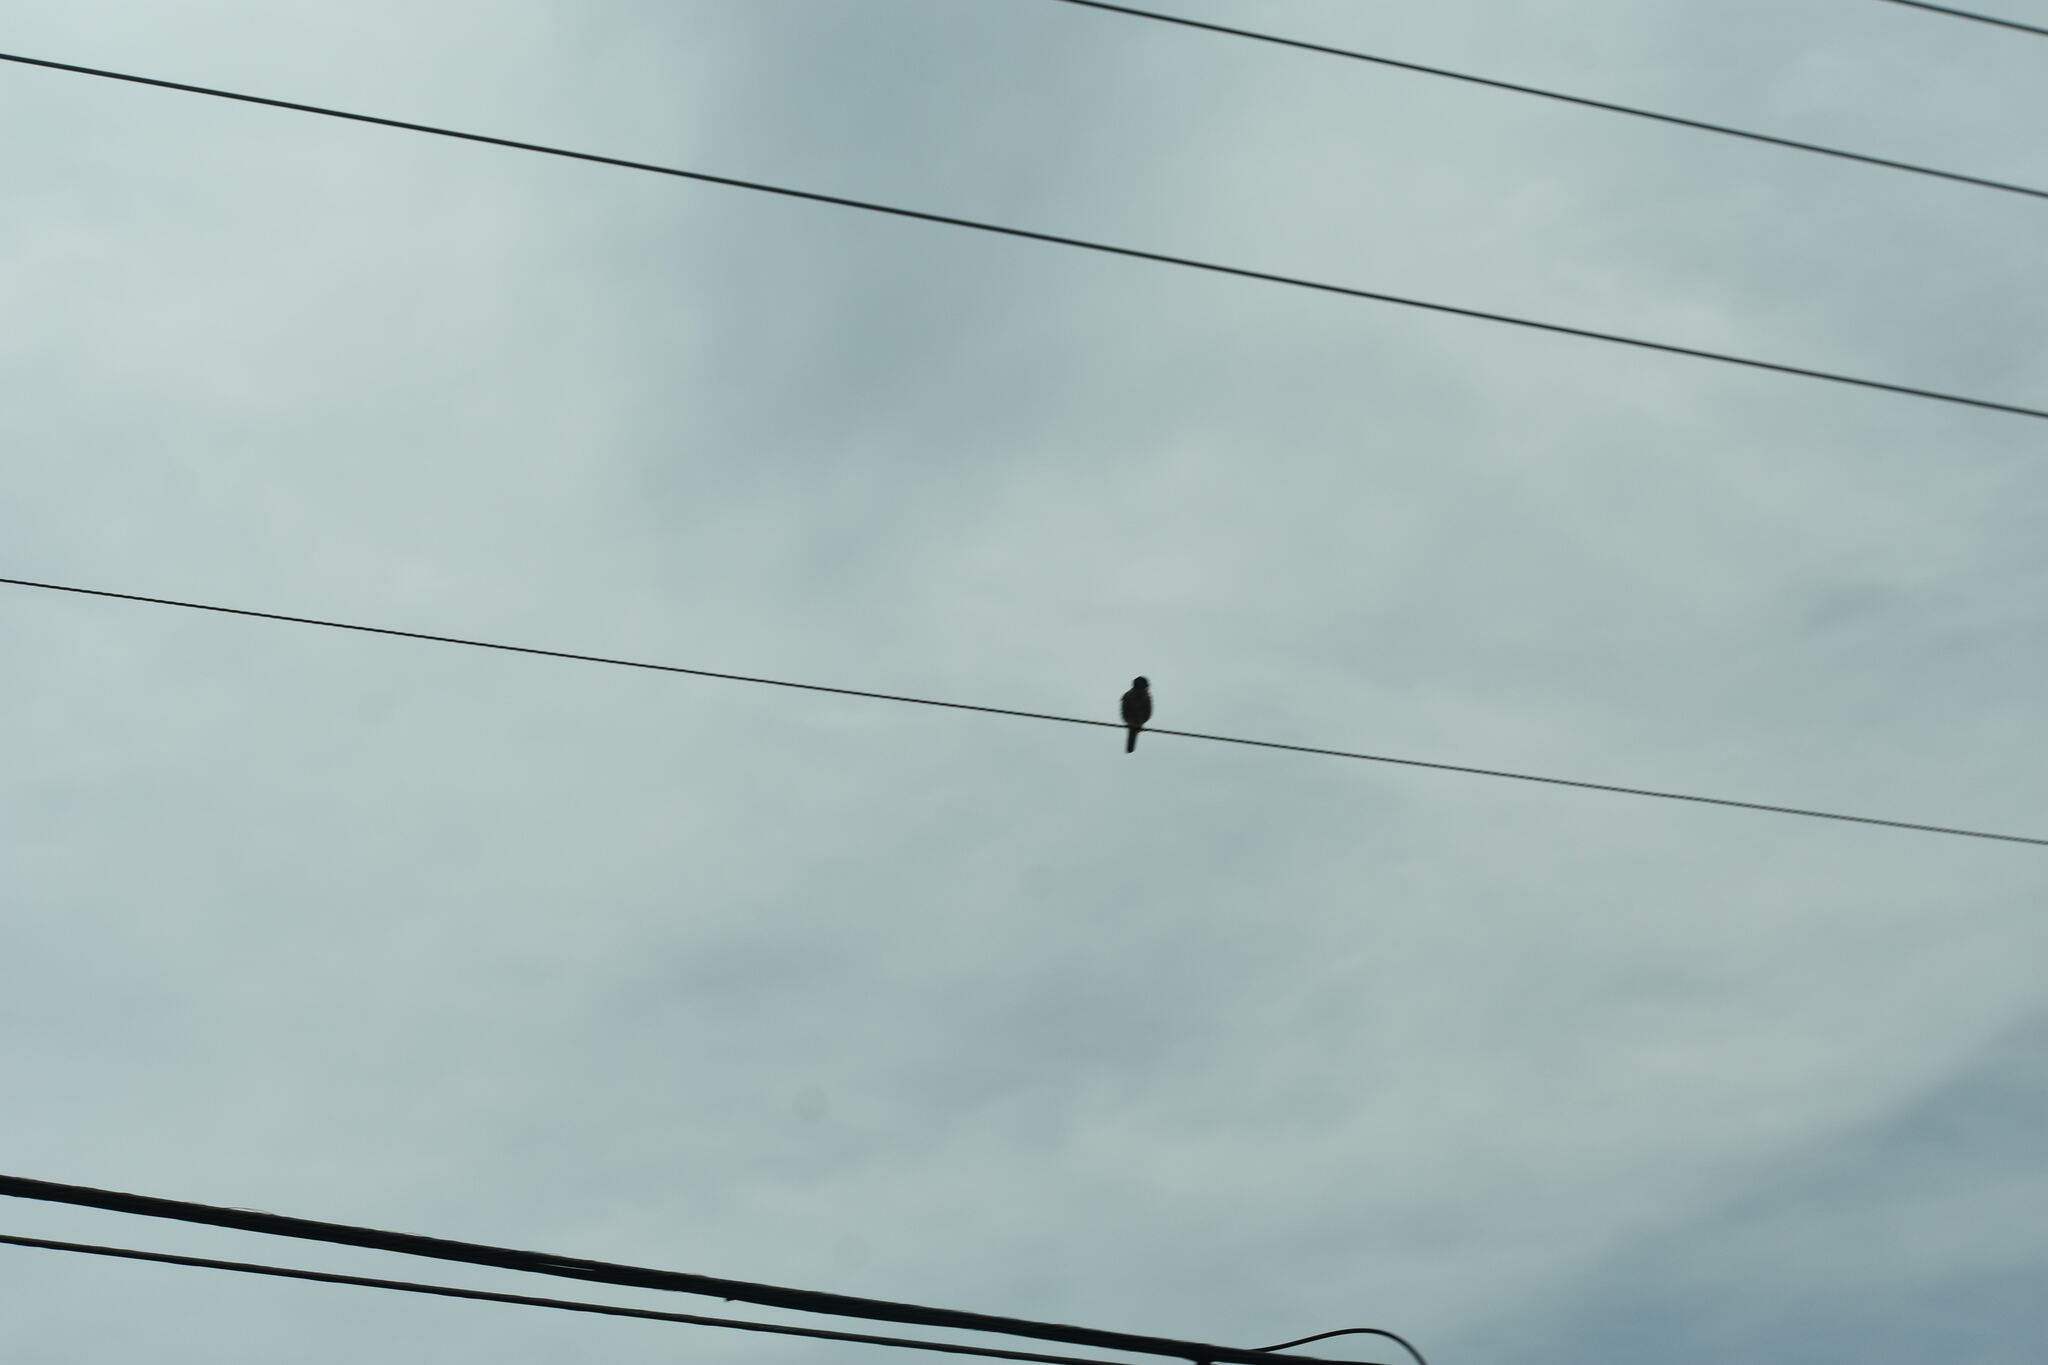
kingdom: Animalia
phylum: Chordata
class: Aves
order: Falconiformes
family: Falconidae
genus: Falco
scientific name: Falco sparverius
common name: American kestrel
